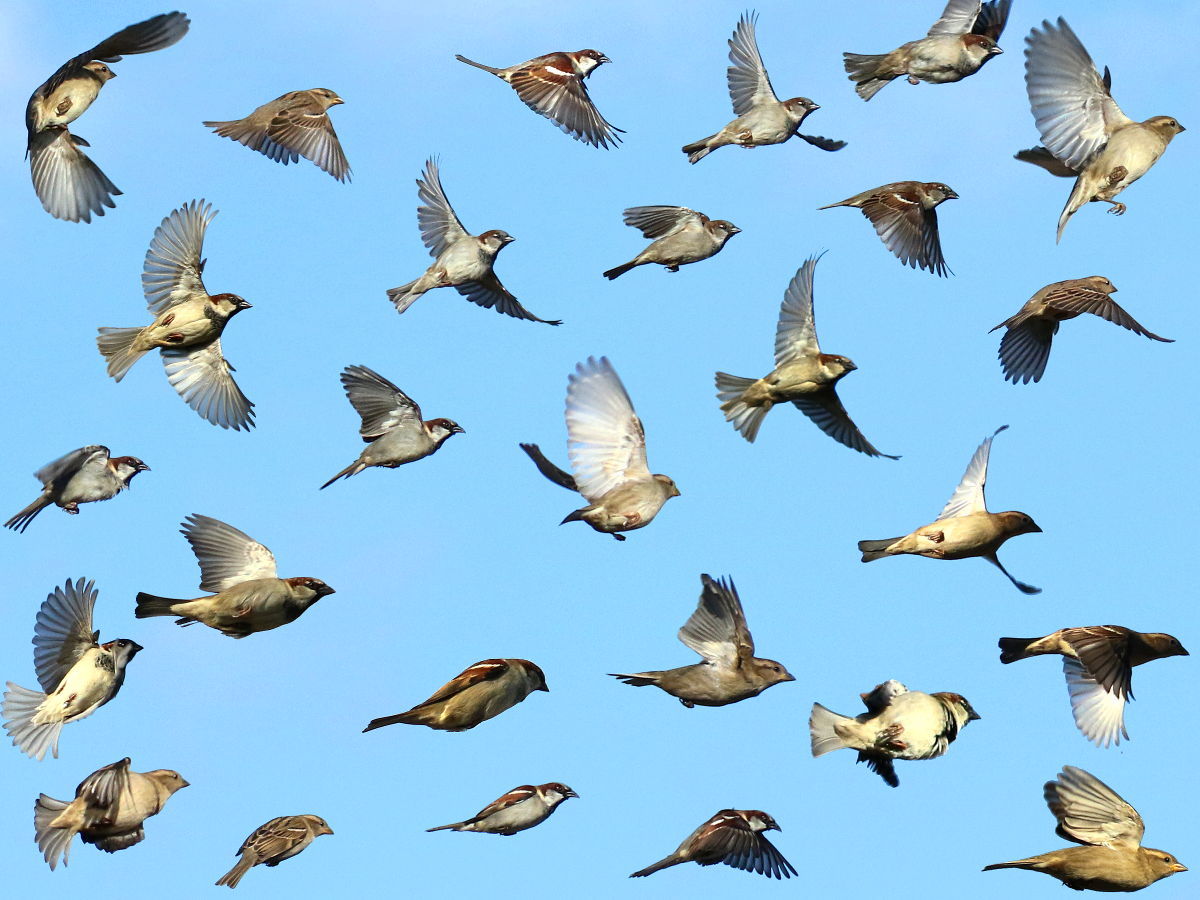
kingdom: Animalia
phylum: Chordata
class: Aves
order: Passeriformes
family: Passeridae
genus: Passer
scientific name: Passer domesticus
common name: House sparrow
